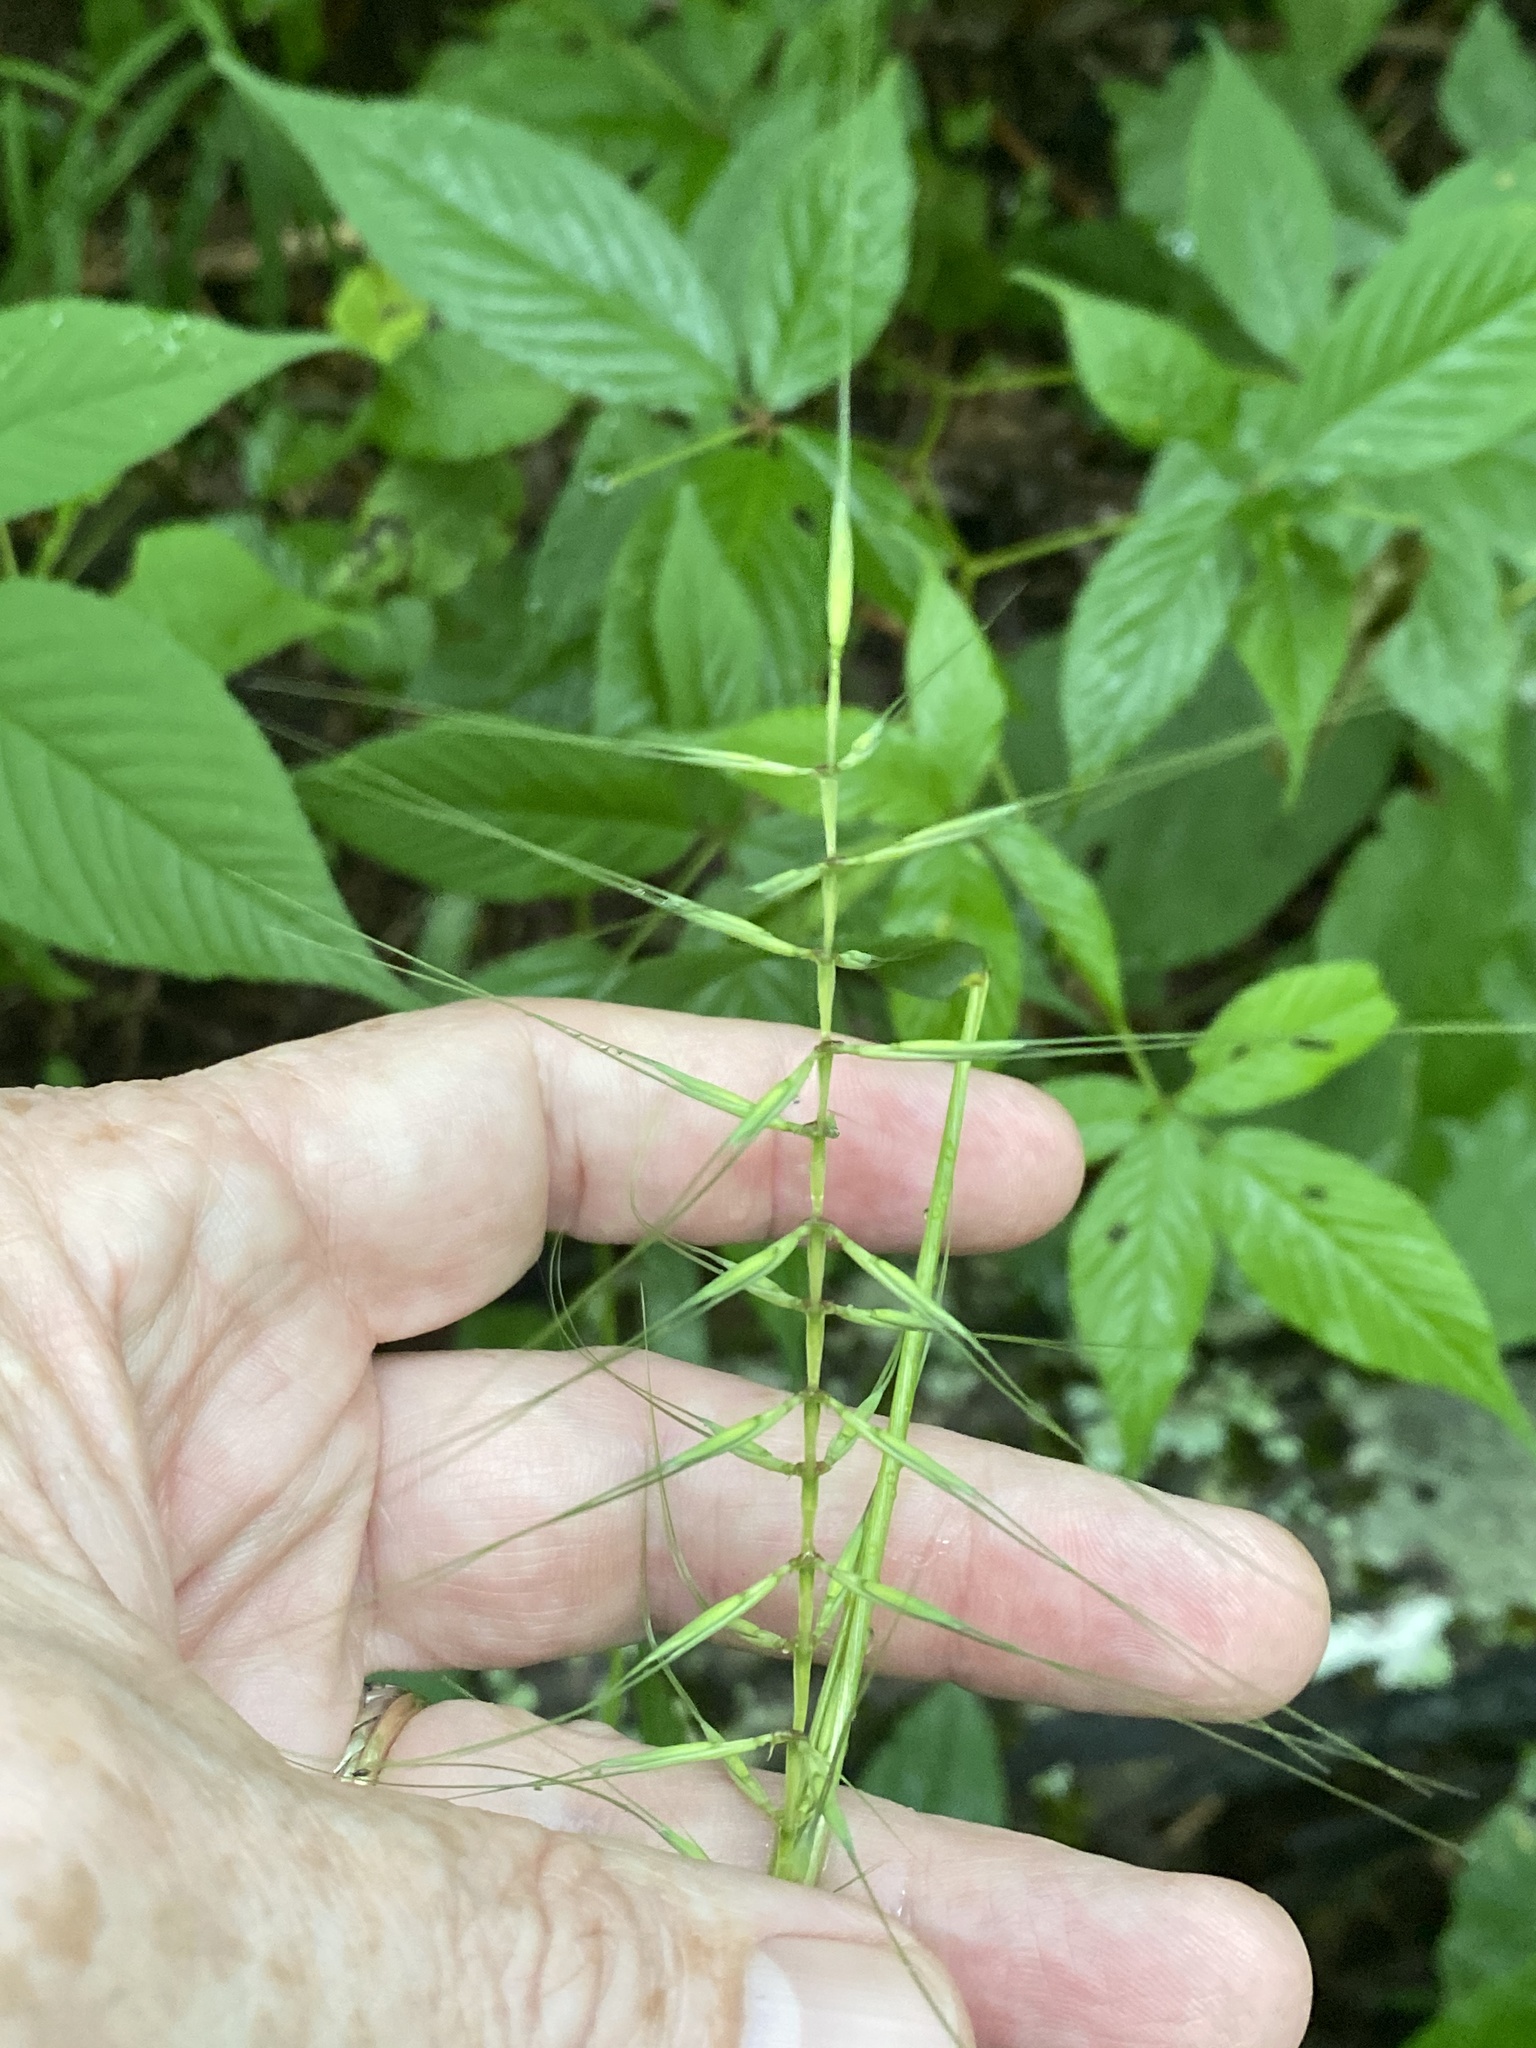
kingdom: Plantae
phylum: Tracheophyta
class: Liliopsida
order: Poales
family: Poaceae
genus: Elymus
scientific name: Elymus hystrix
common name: Bottlebrush grass
